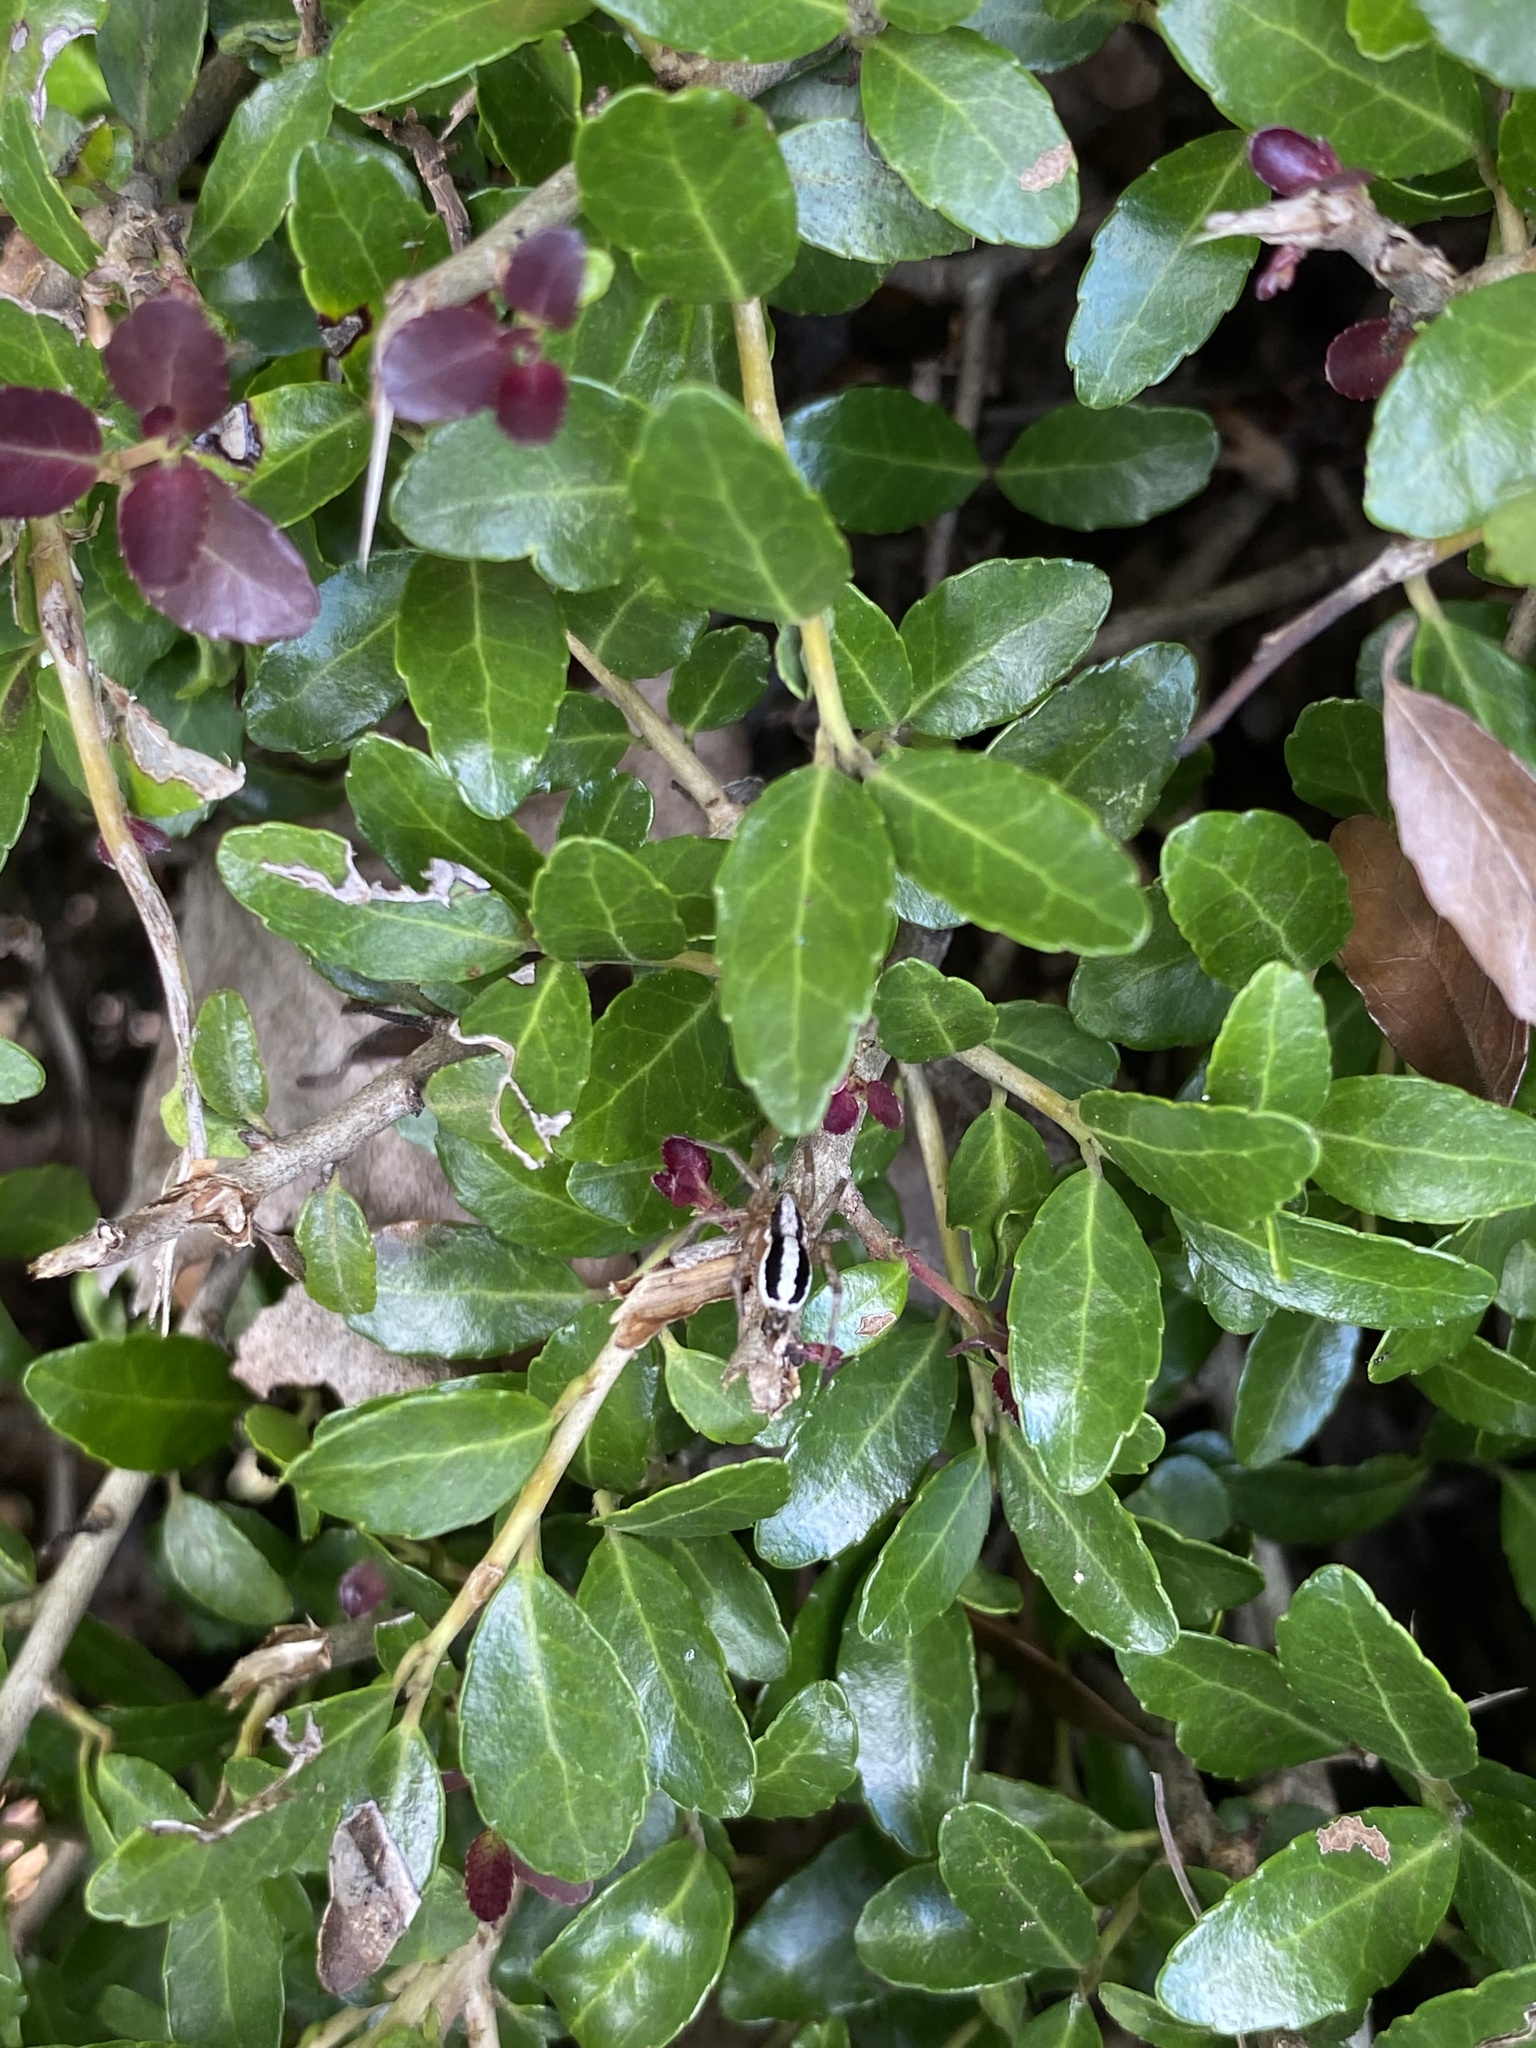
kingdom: Animalia
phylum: Arthropoda
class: Arachnida
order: Araneae
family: Gnaphosidae
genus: Cesonia
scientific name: Cesonia bilineata
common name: Two-lined stealthy ground spider
